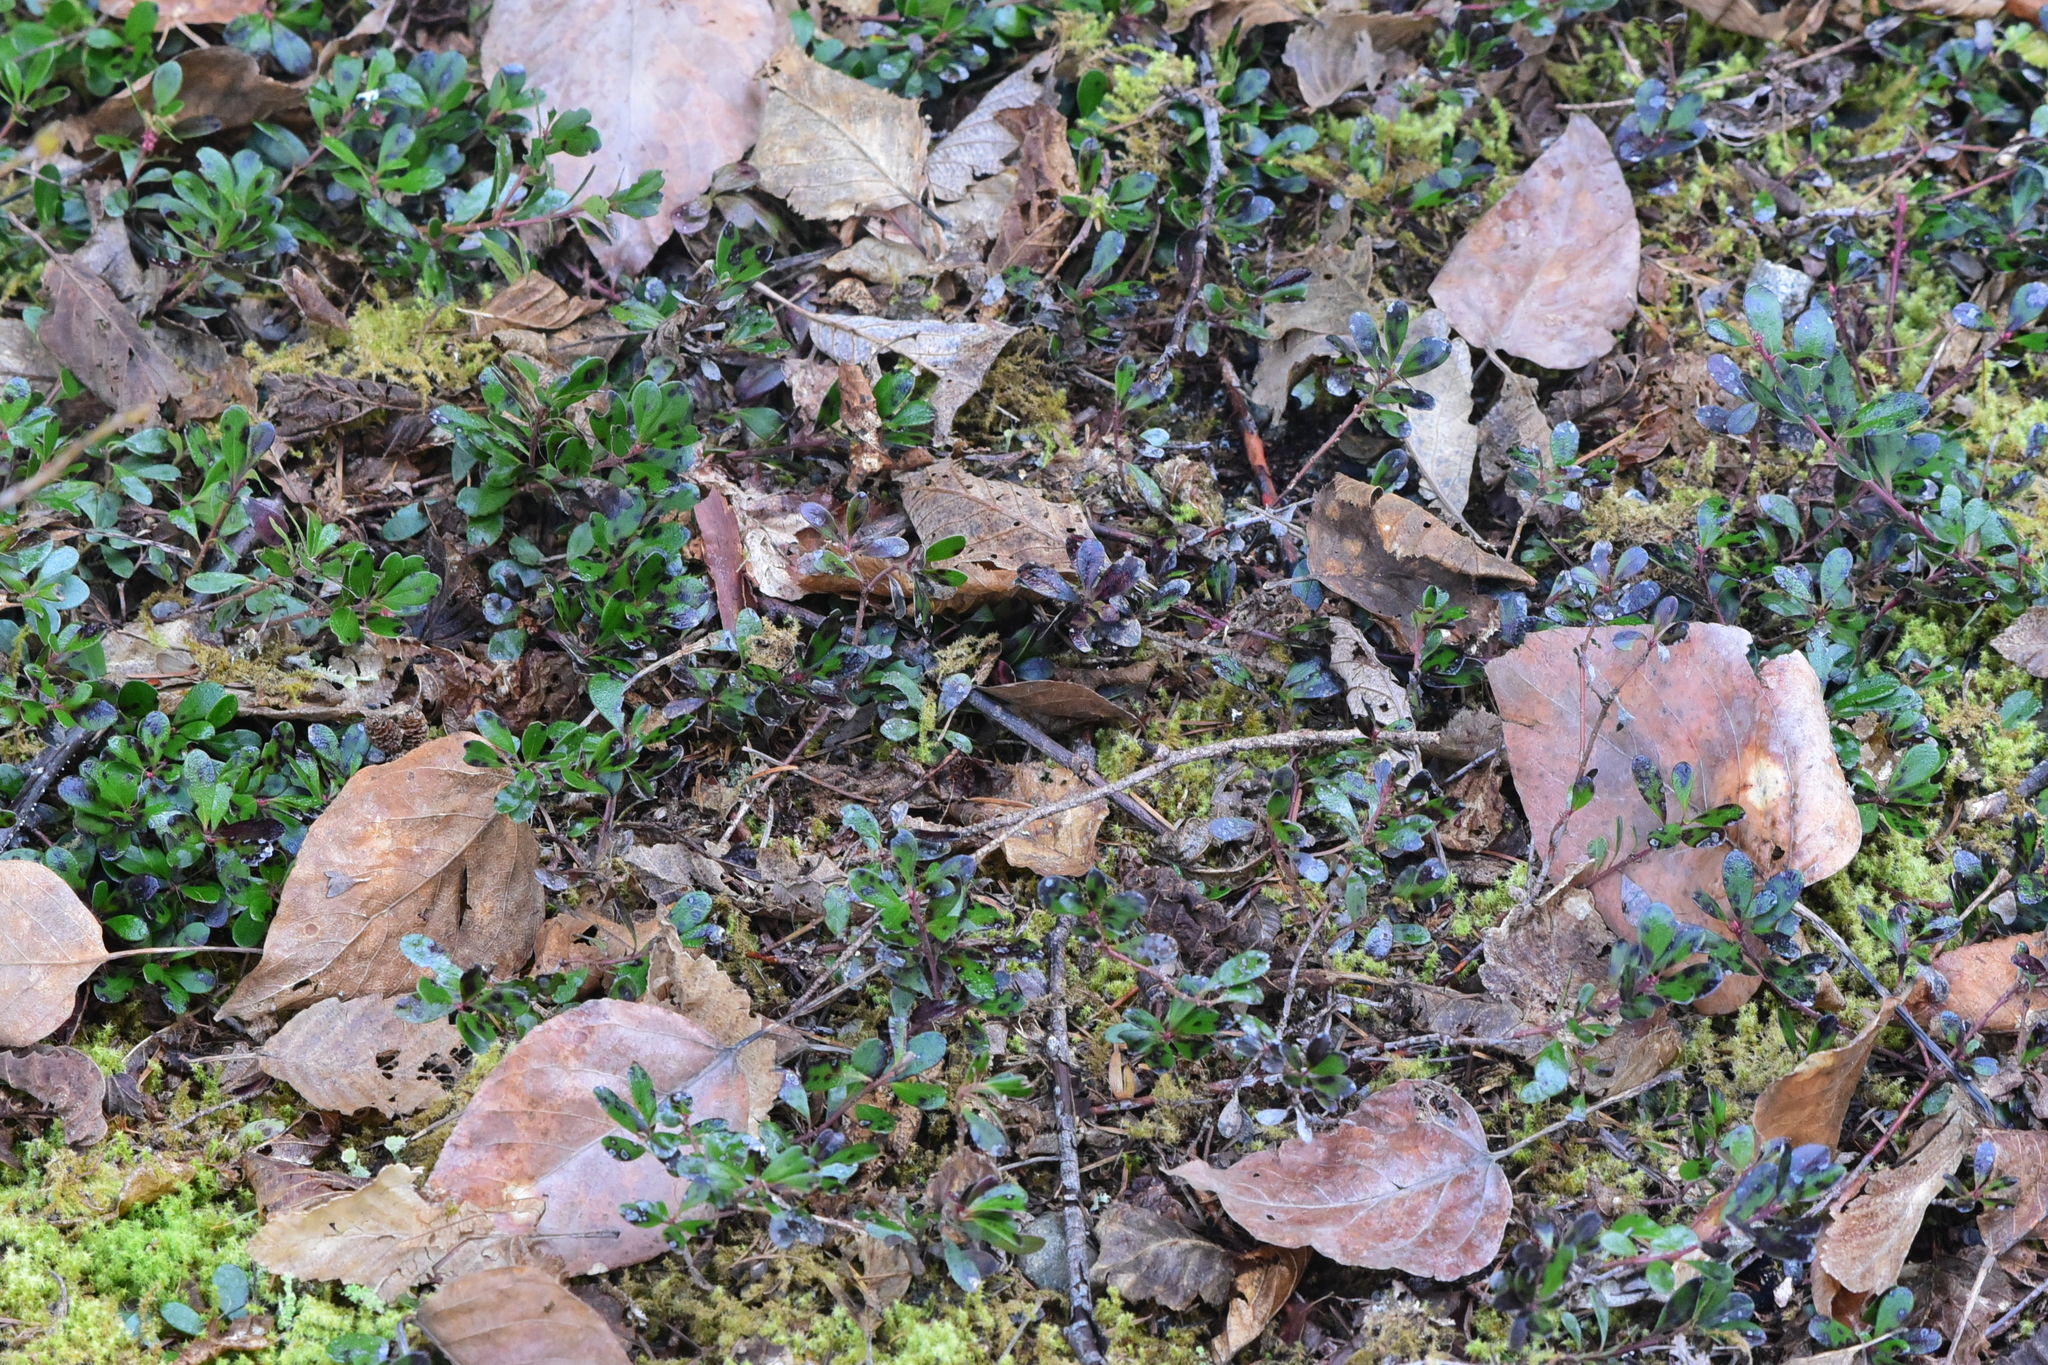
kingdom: Plantae
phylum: Tracheophyta
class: Magnoliopsida
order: Ericales
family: Ericaceae
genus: Arctostaphylos
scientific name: Arctostaphylos uva-ursi
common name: Bearberry
